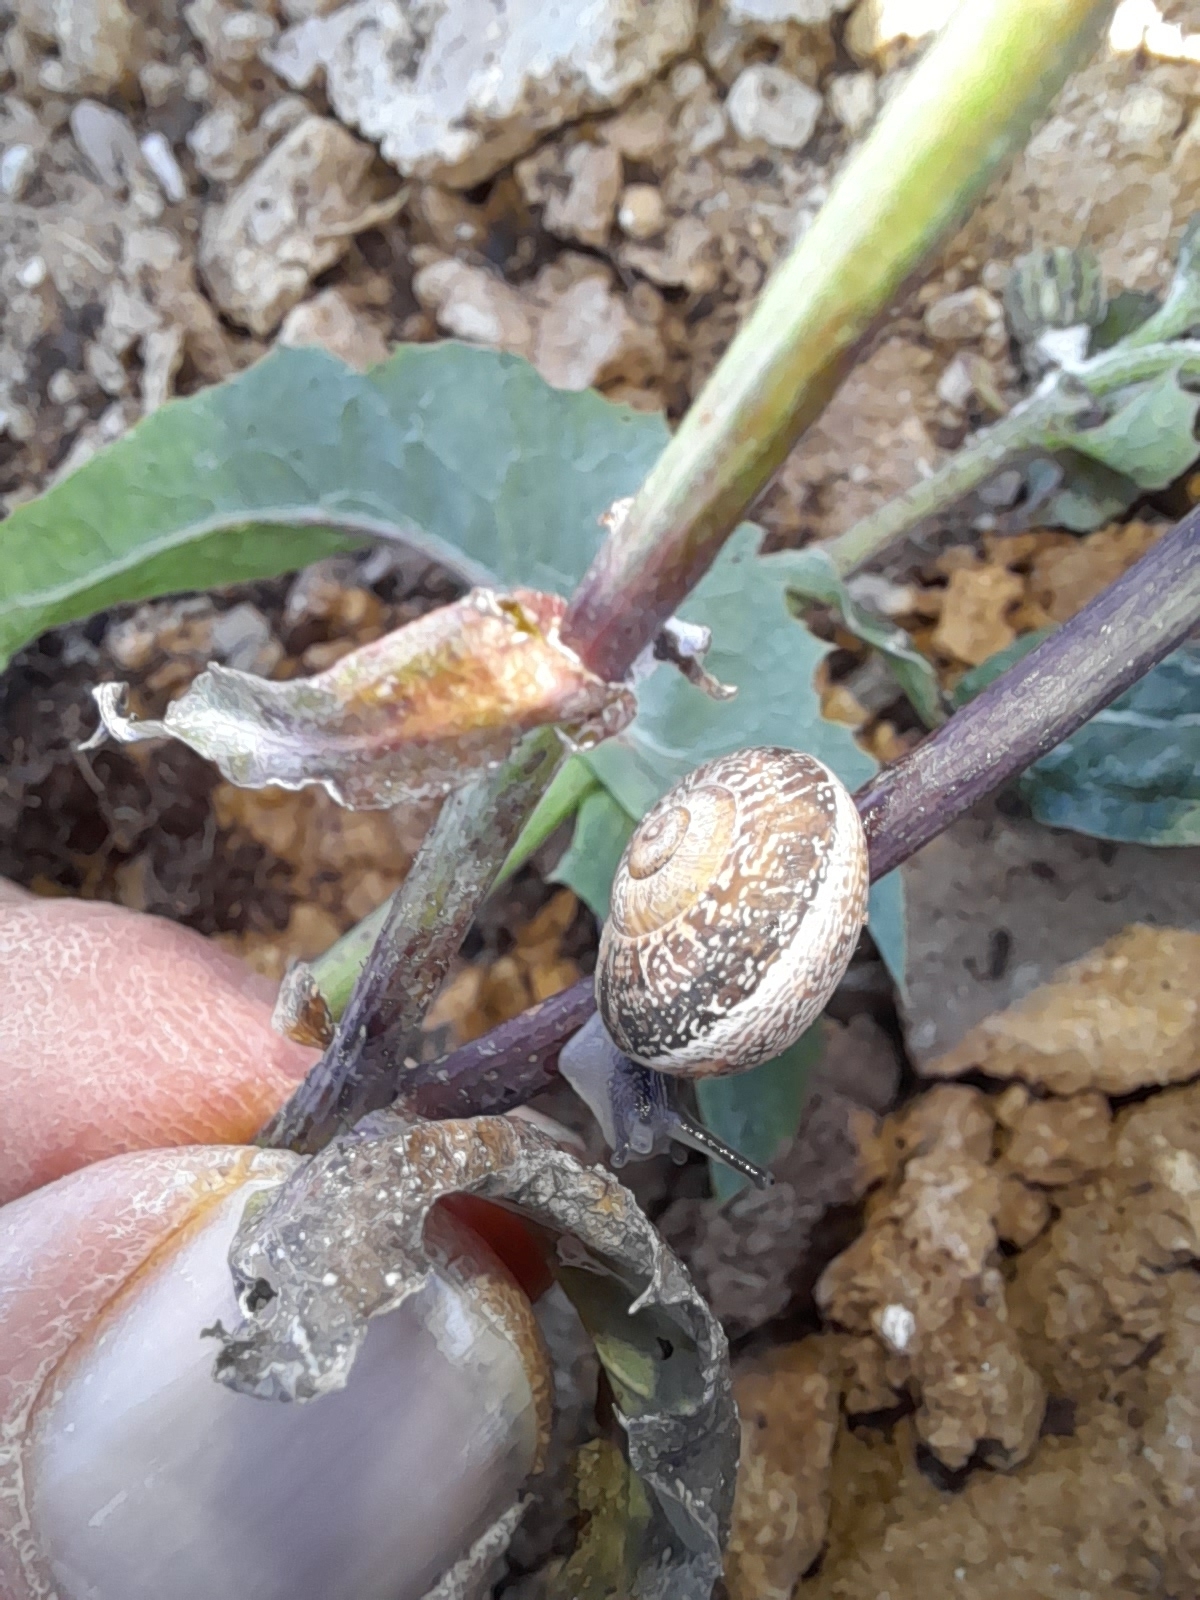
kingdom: Animalia
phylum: Mollusca
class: Gastropoda
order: Stylommatophora
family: Helicidae
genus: Eobania
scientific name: Eobania vermiculata
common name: Chocolateband snail
